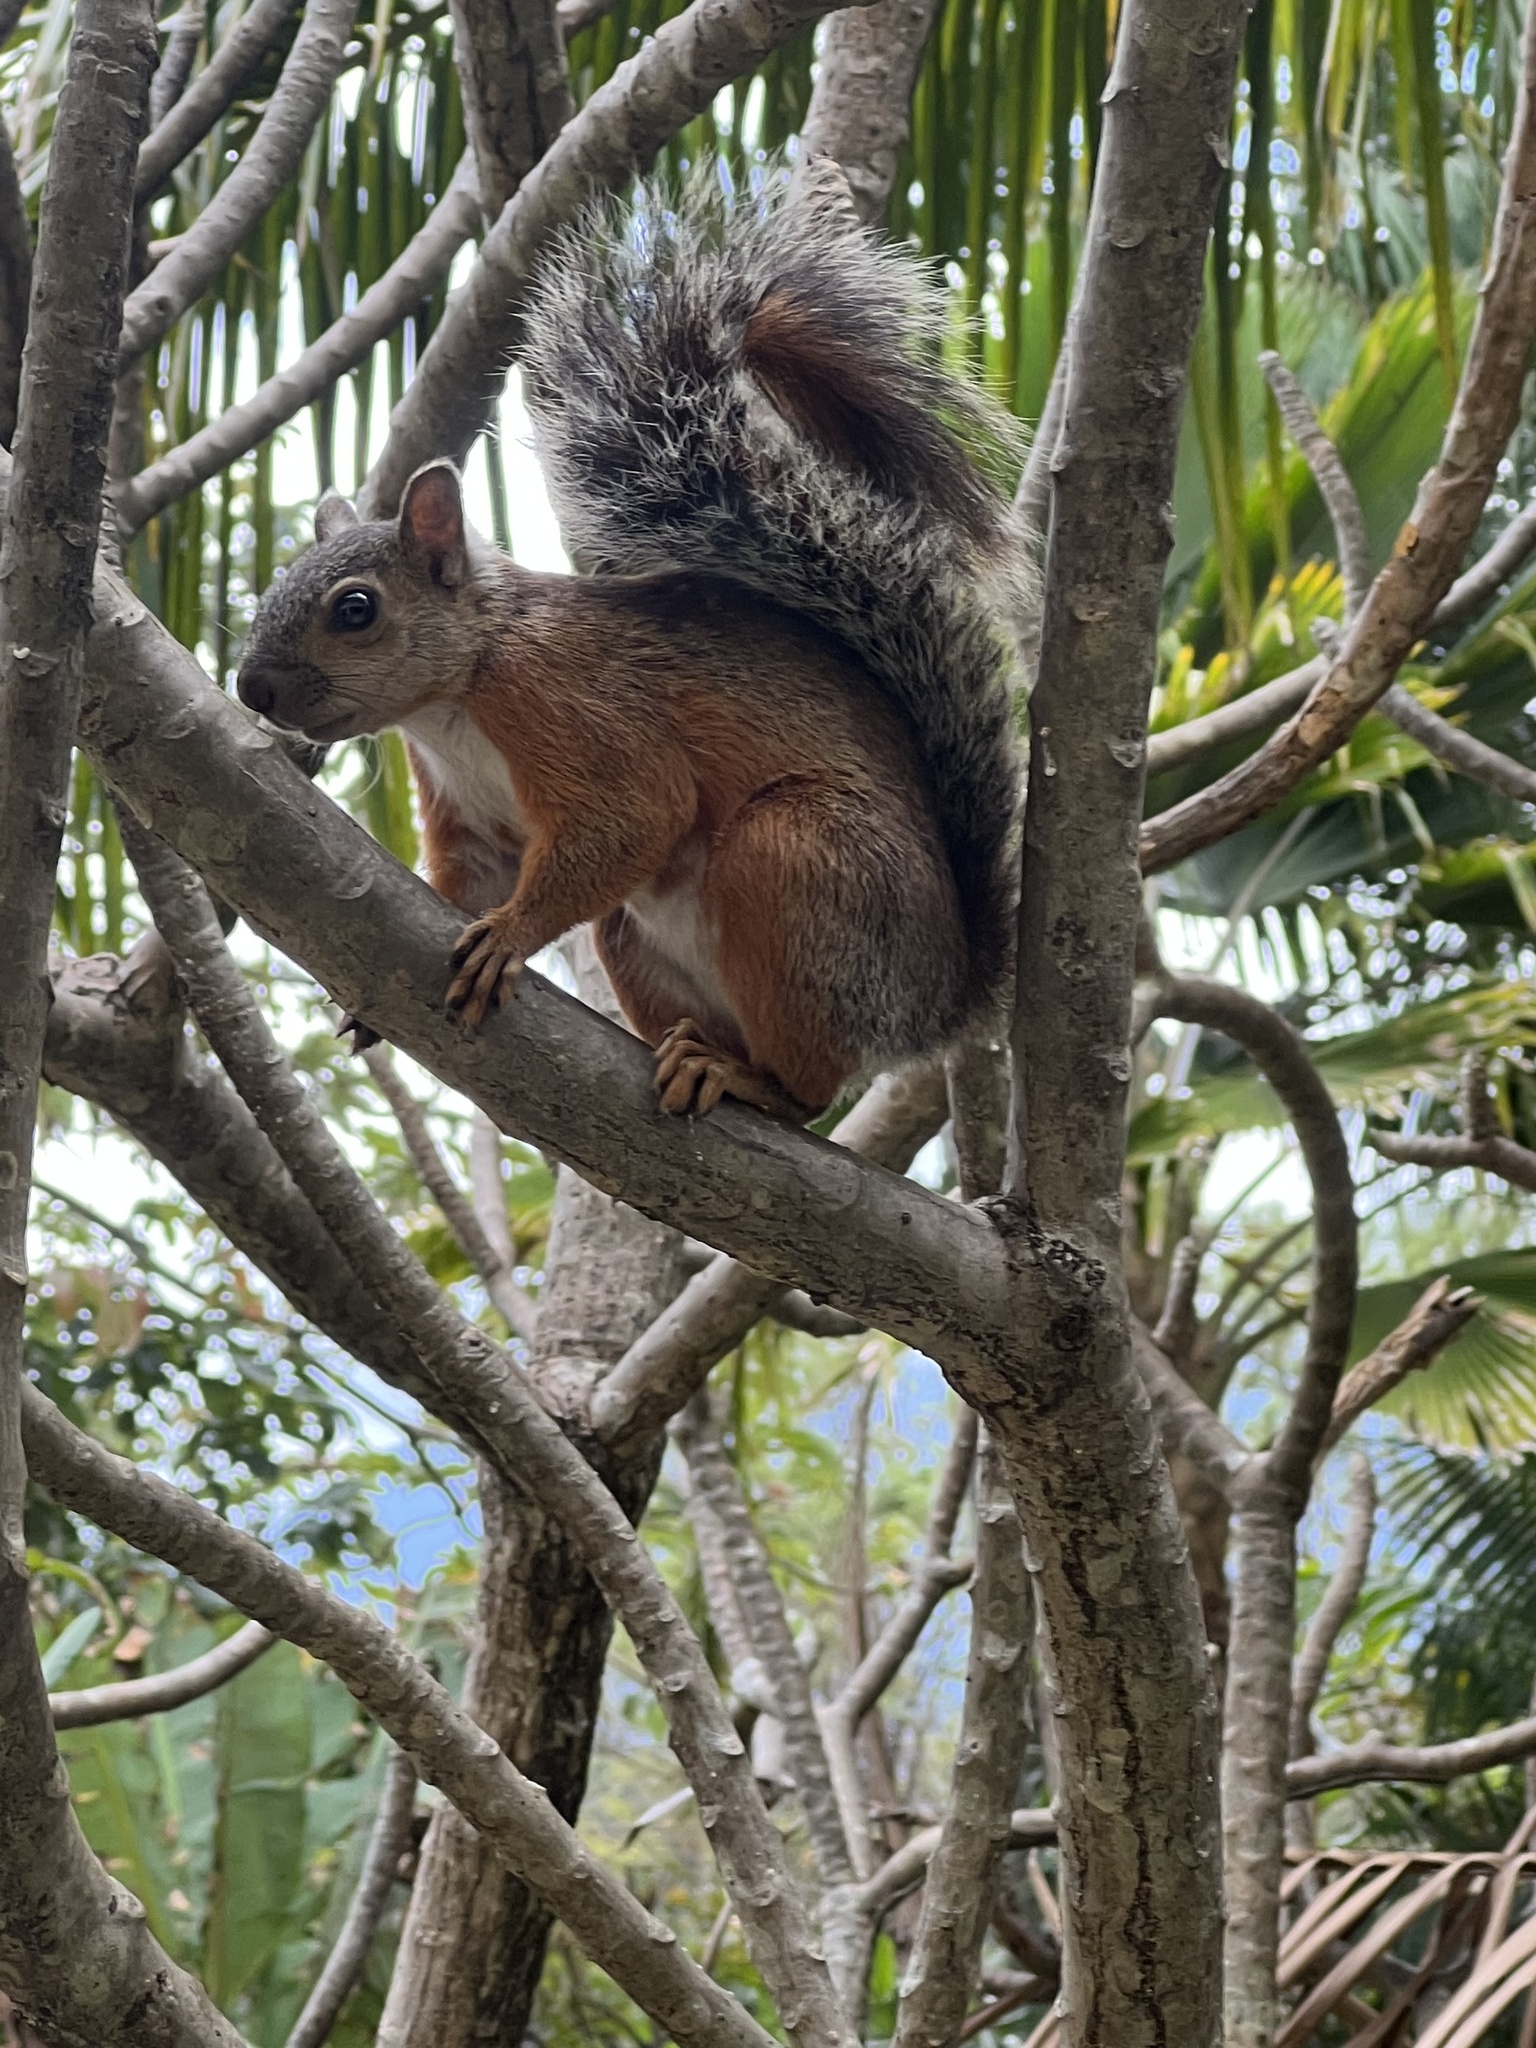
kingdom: Animalia
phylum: Chordata
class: Mammalia
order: Rodentia
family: Sciuridae
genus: Sciurus
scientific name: Sciurus variegatoides
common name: Variegated squirrel
